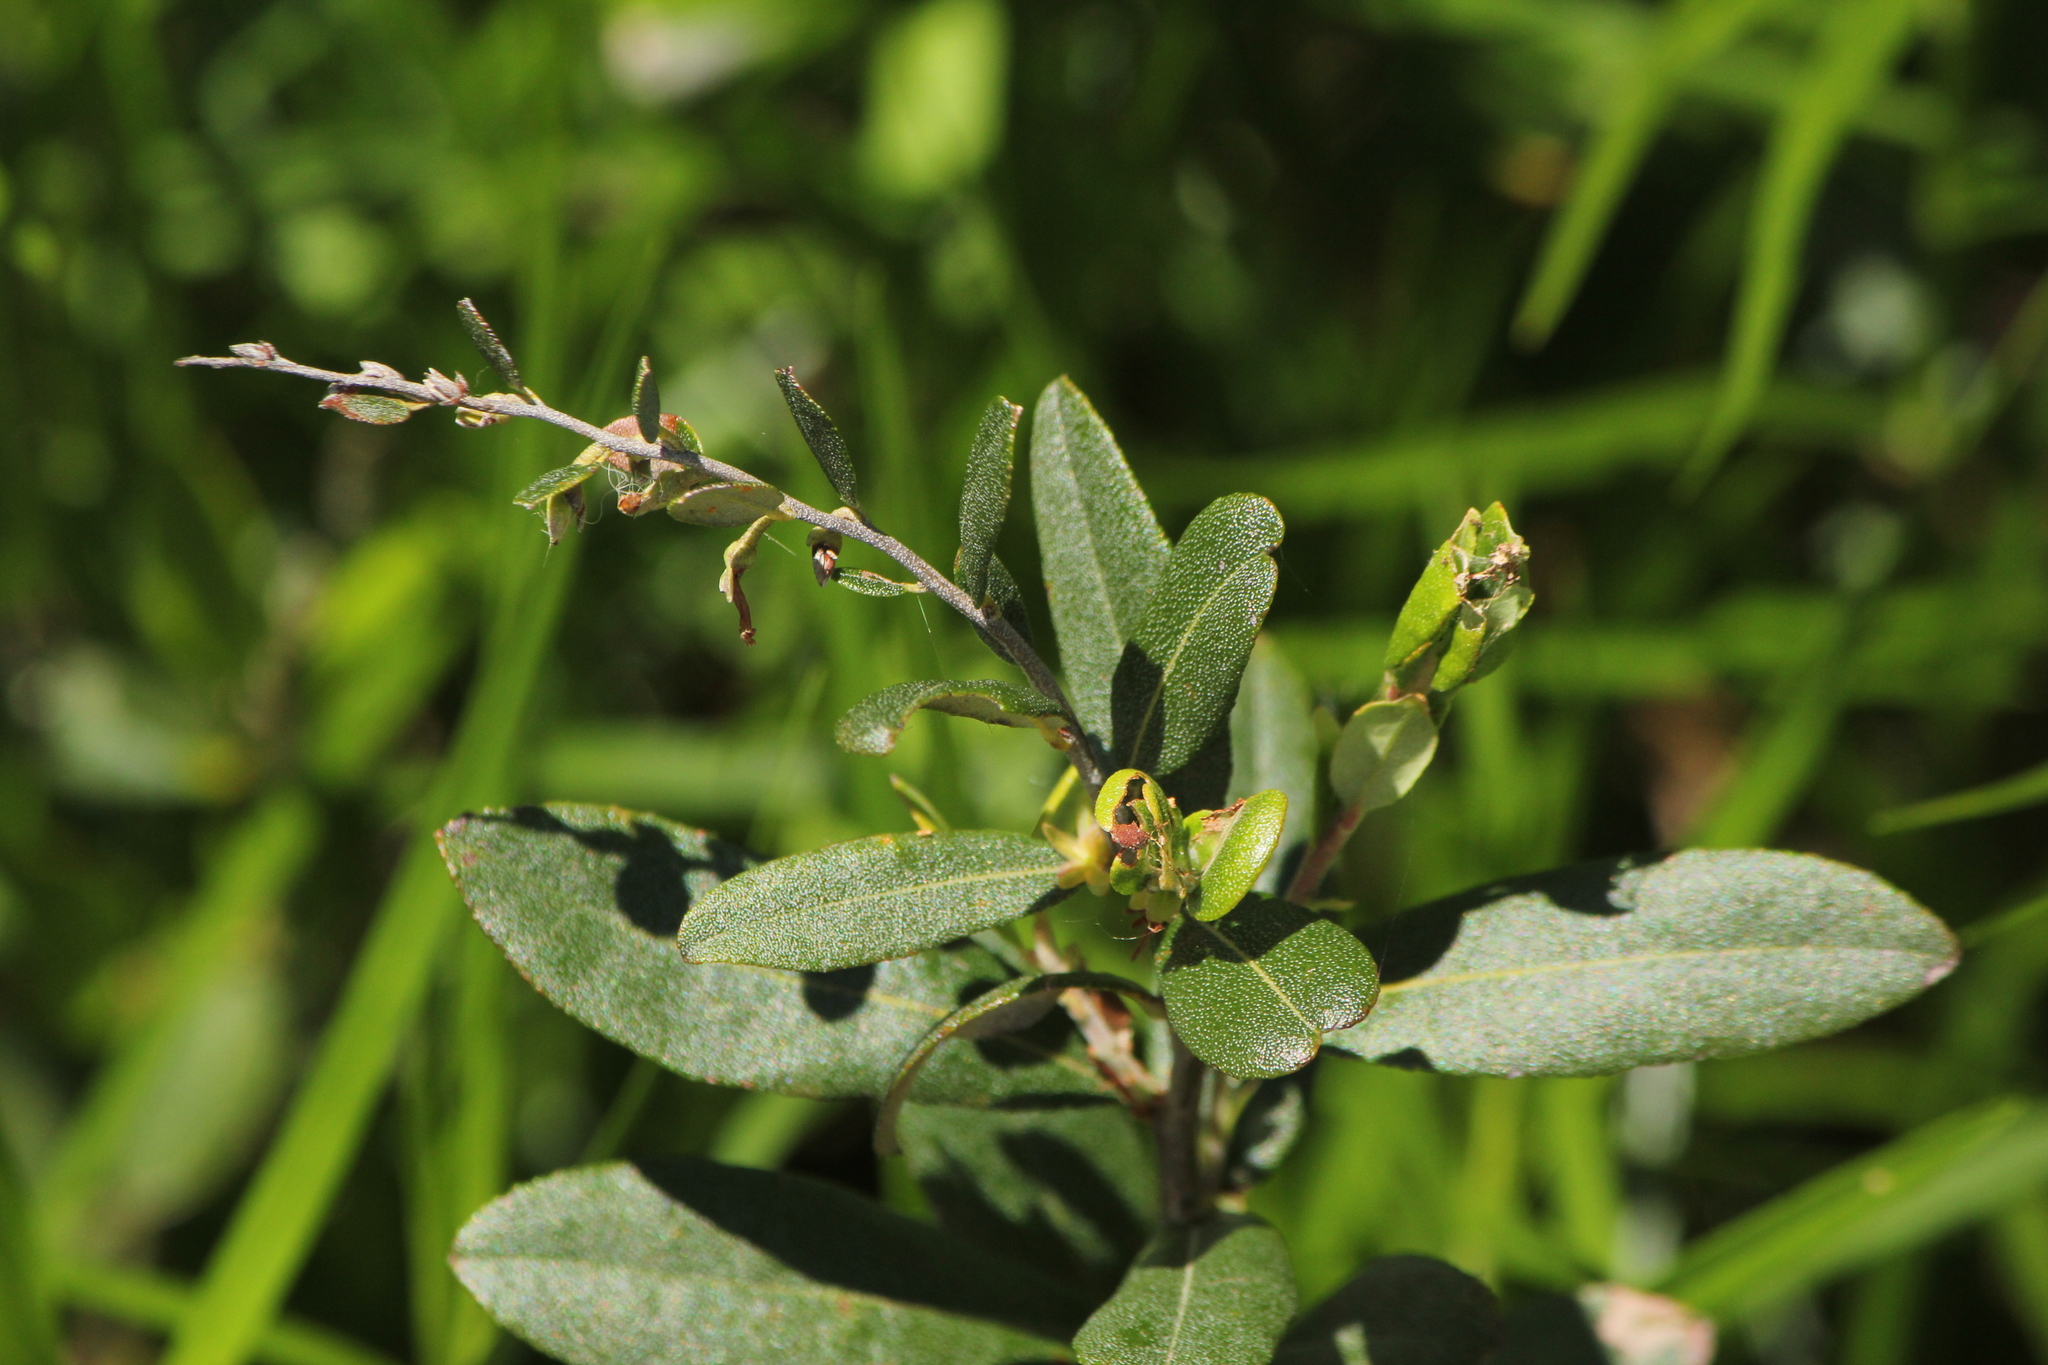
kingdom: Plantae
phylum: Tracheophyta
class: Magnoliopsida
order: Ericales
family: Ericaceae
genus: Chamaedaphne
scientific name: Chamaedaphne calyculata
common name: Leatherleaf
